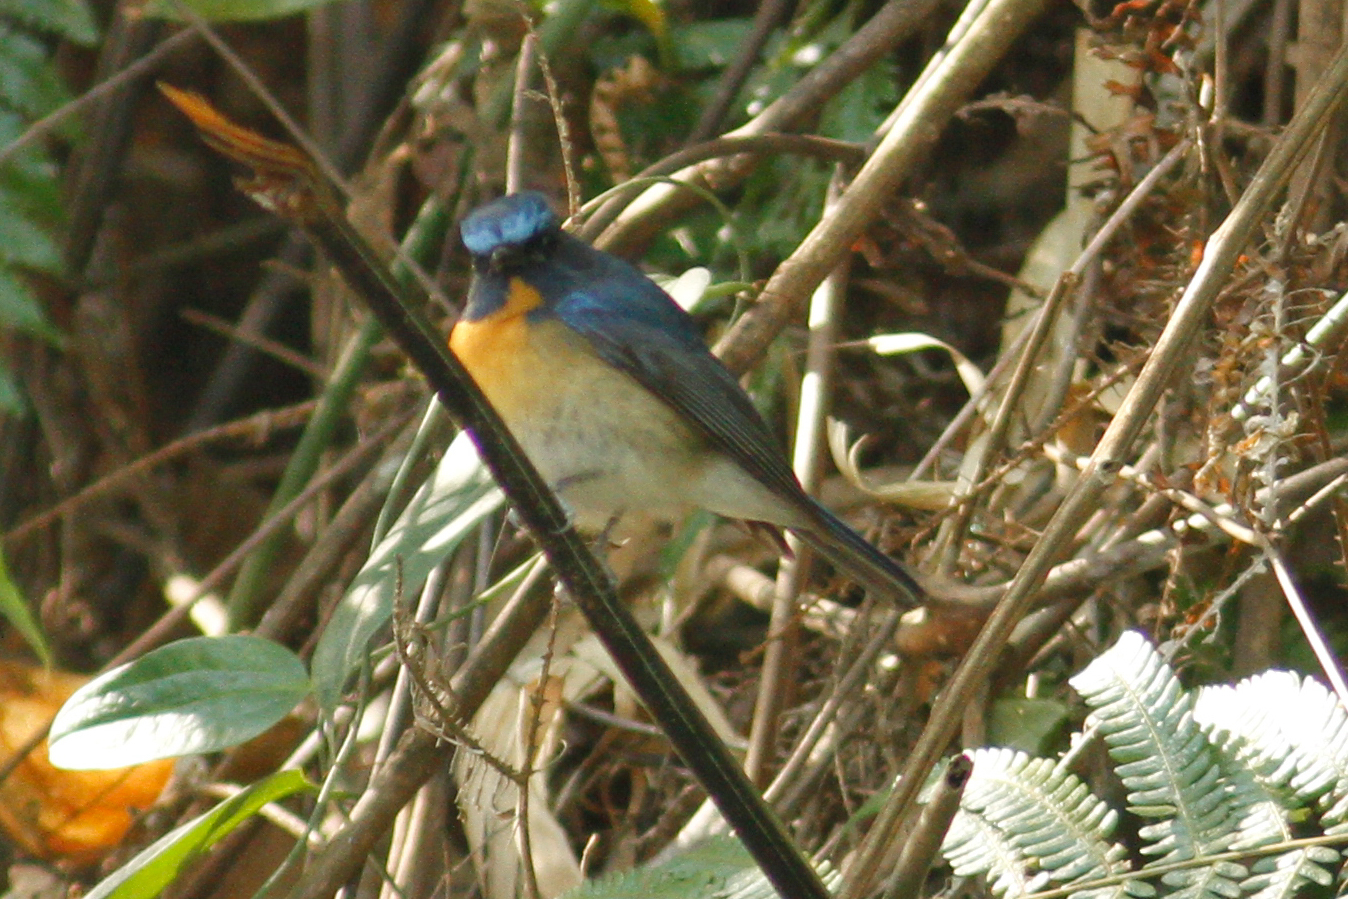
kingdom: Animalia
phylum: Chordata
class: Aves
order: Passeriformes
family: Muscicapidae
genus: Cyornis
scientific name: Cyornis glaucicomans
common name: Chinese blue flycatcher
